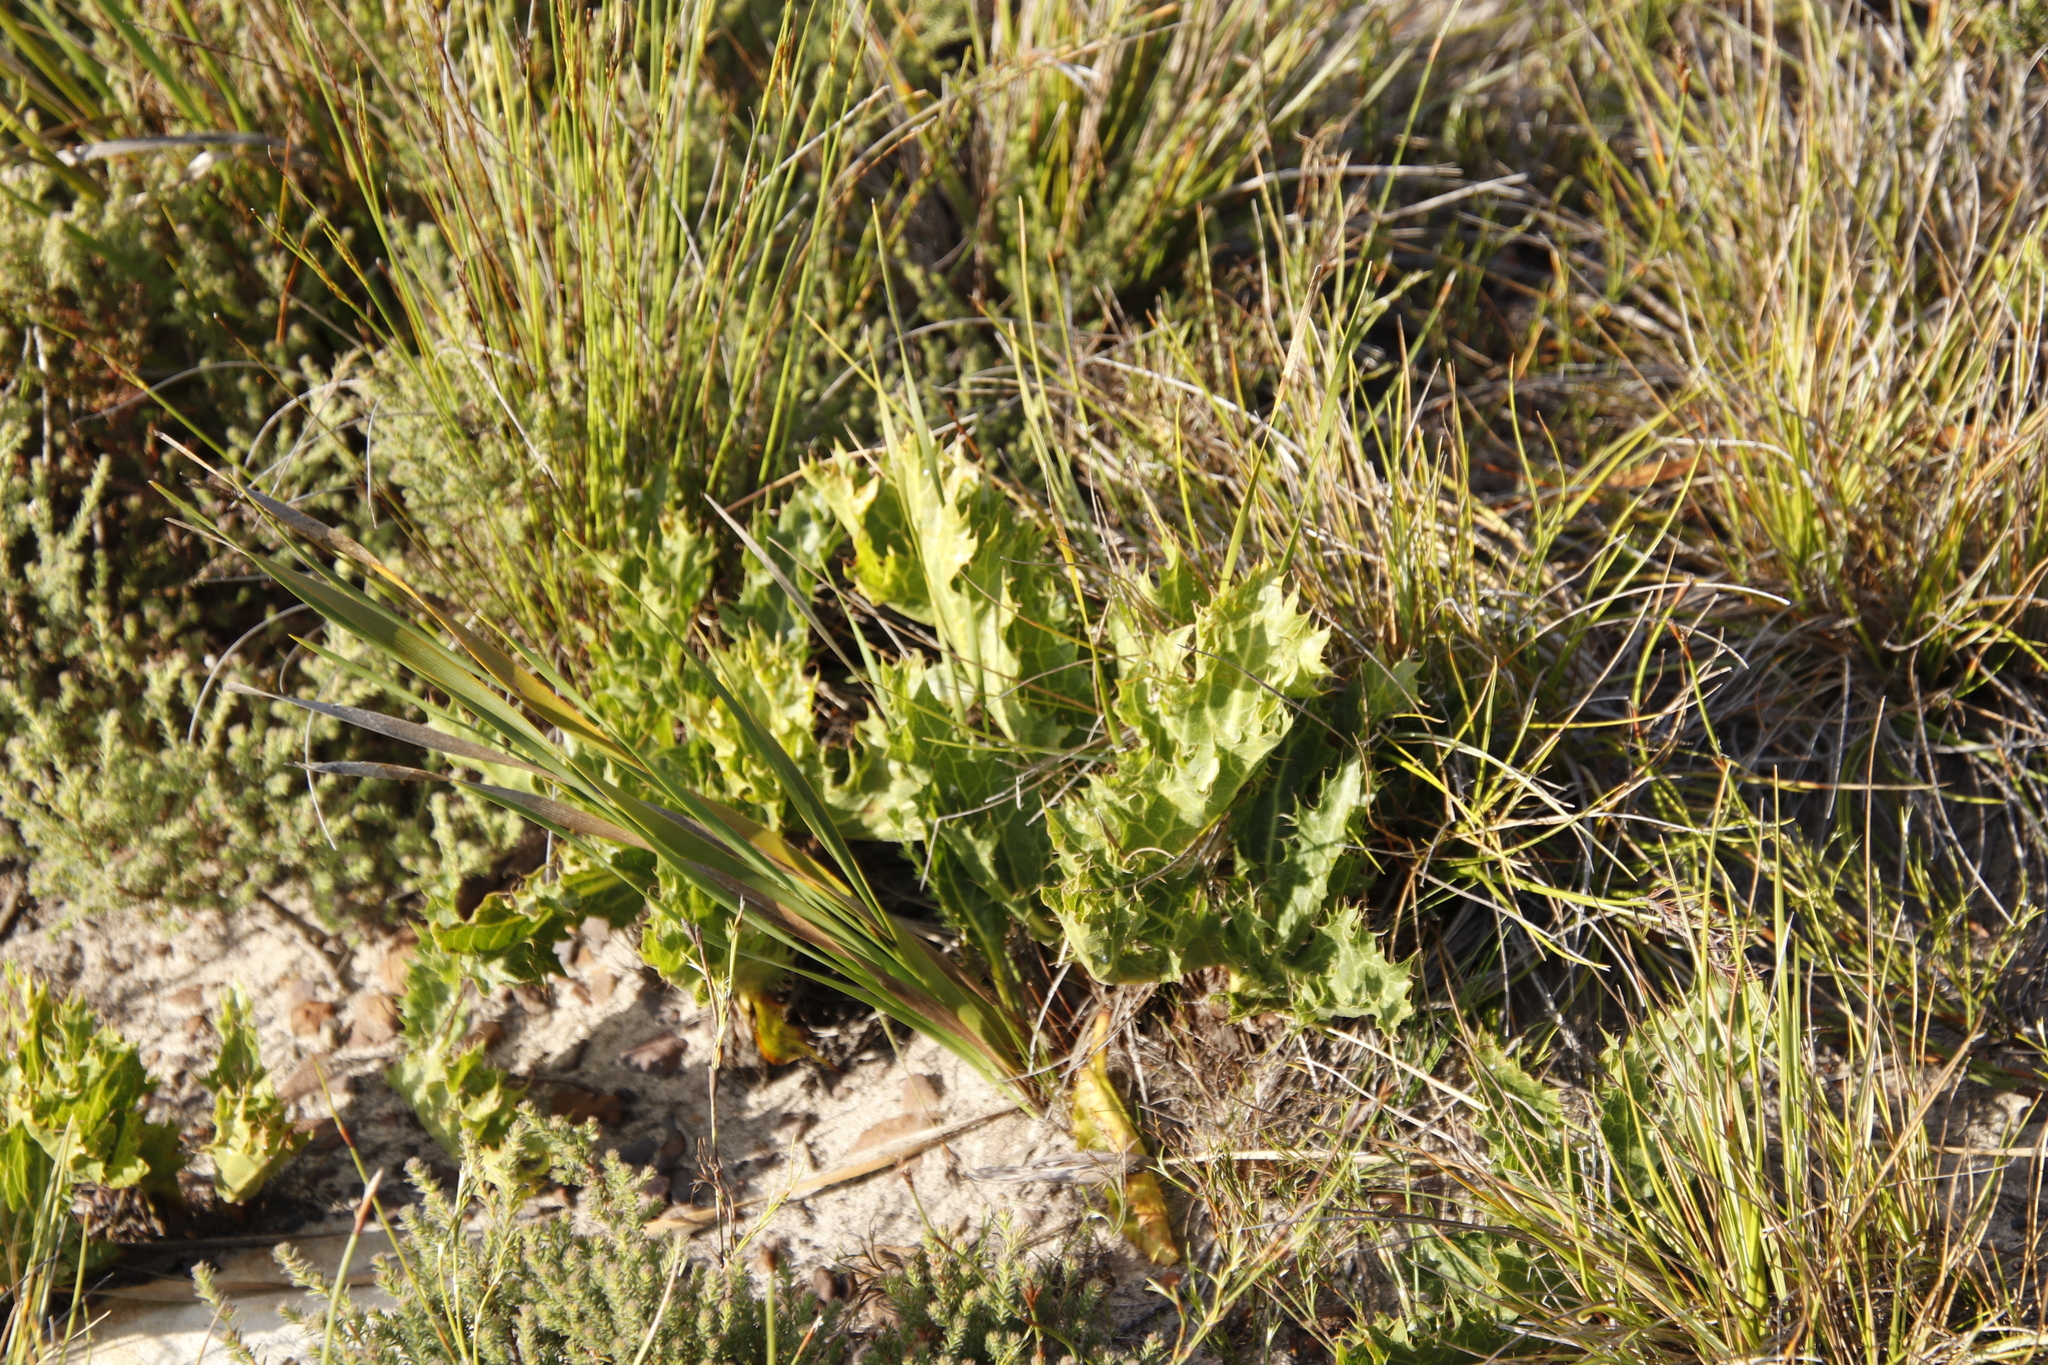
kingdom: Plantae
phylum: Tracheophyta
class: Magnoliopsida
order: Apiales
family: Apiaceae
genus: Lichtensteinia
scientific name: Lichtensteinia lacera
